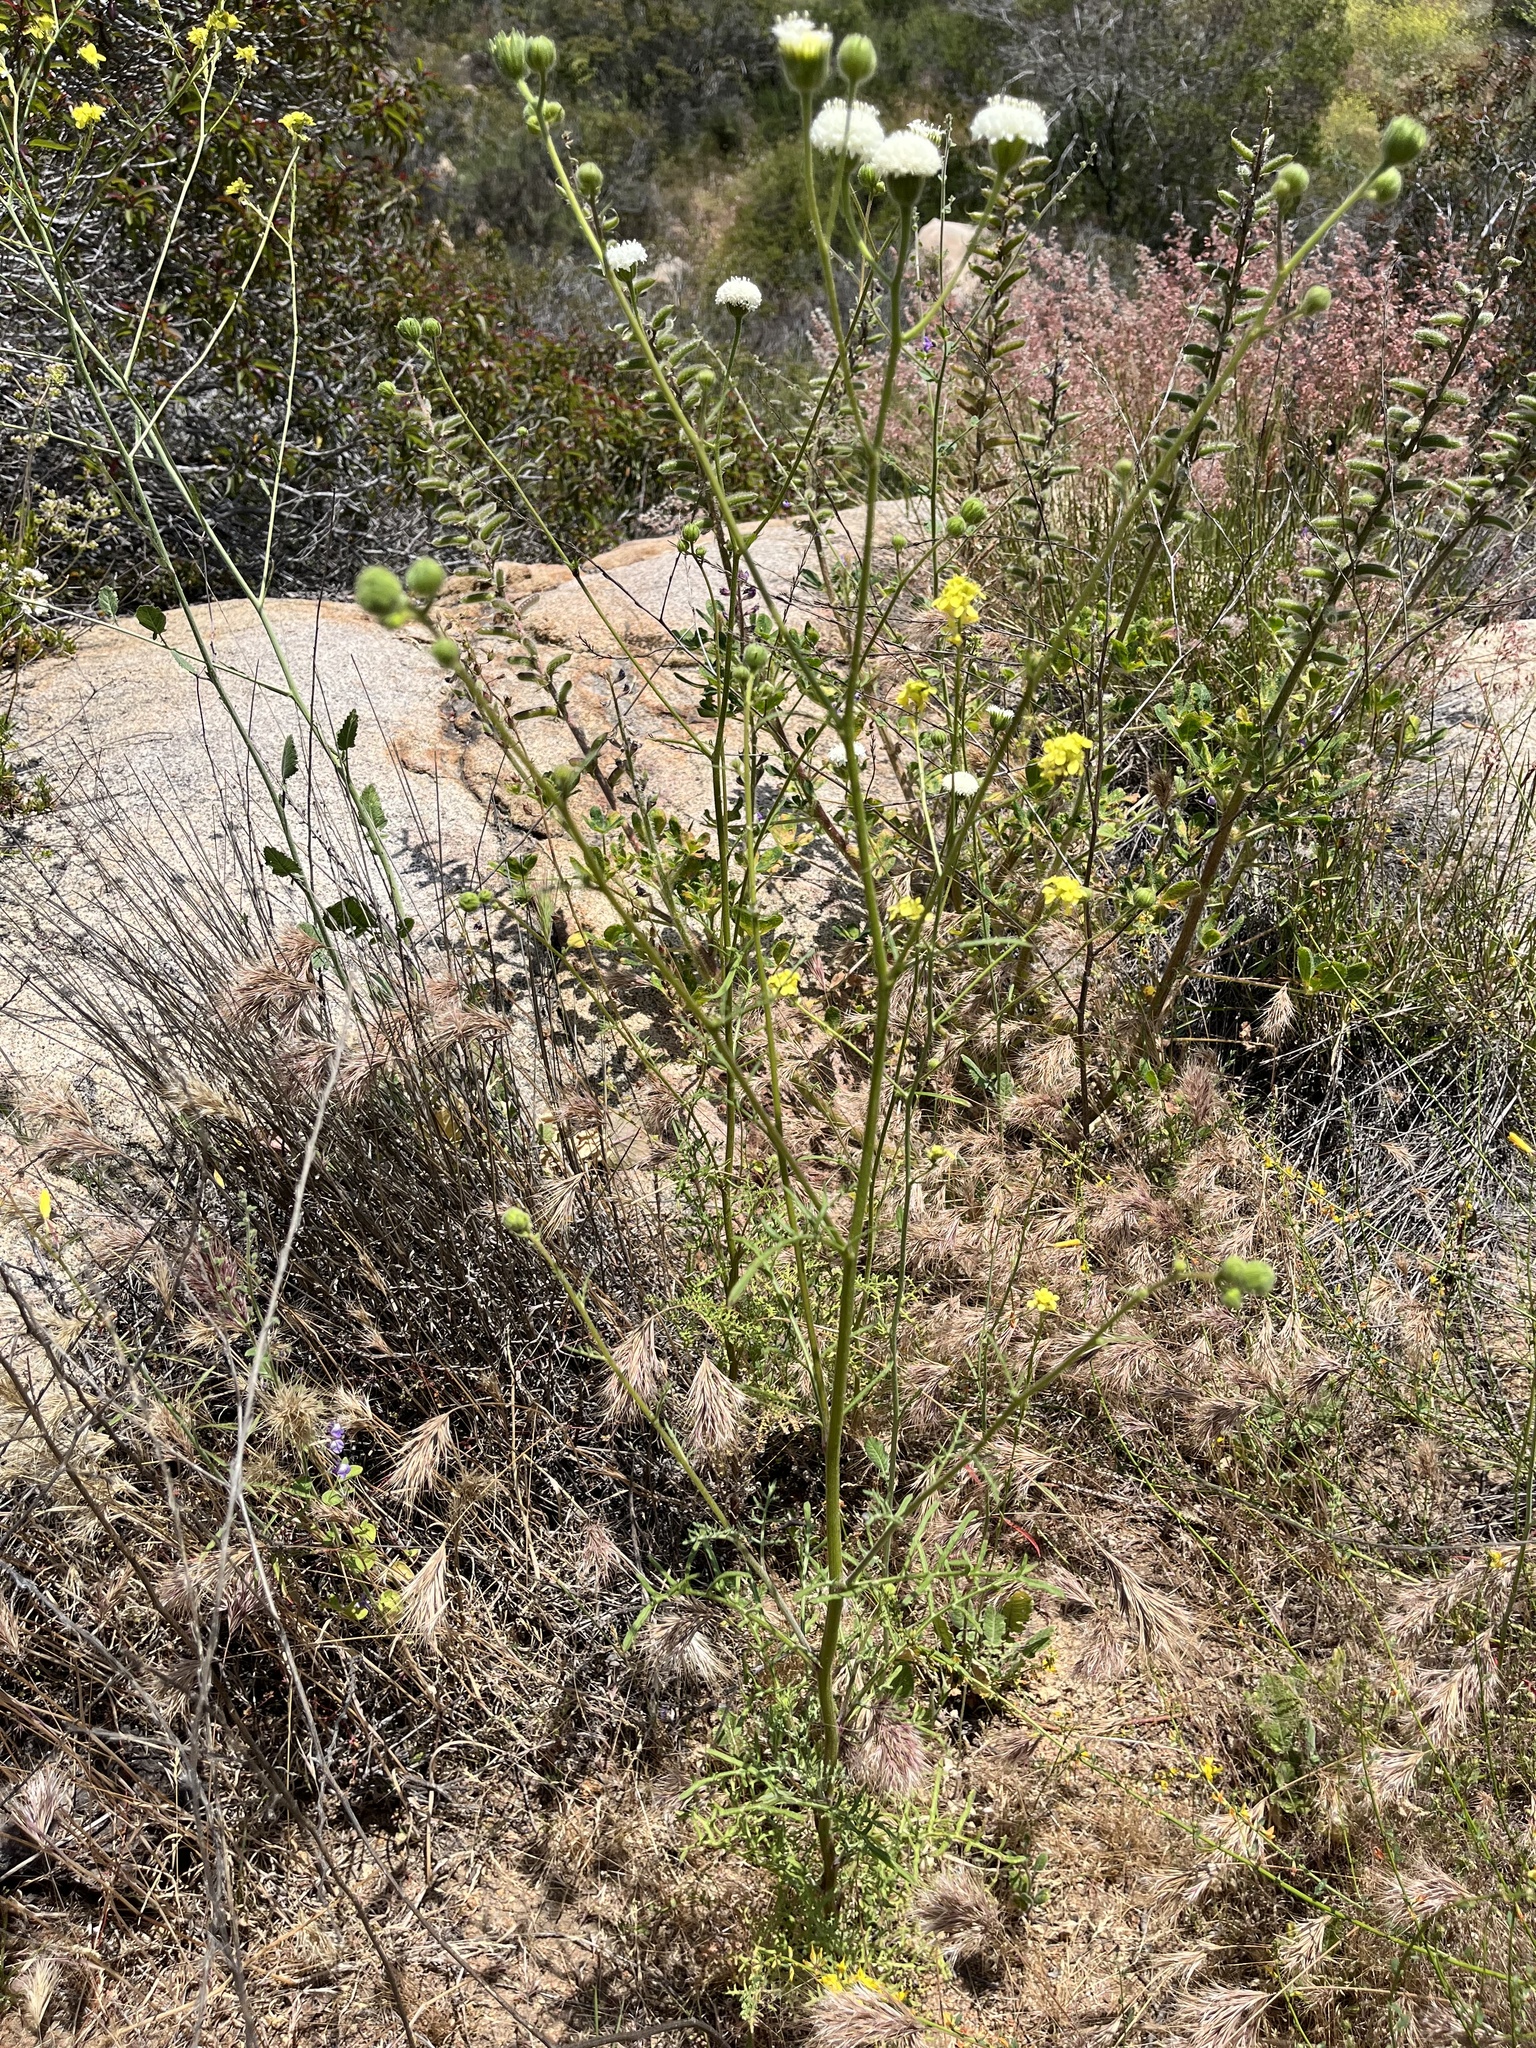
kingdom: Plantae
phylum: Tracheophyta
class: Magnoliopsida
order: Asterales
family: Asteraceae
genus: Chaenactis
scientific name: Chaenactis artemisiifolia
